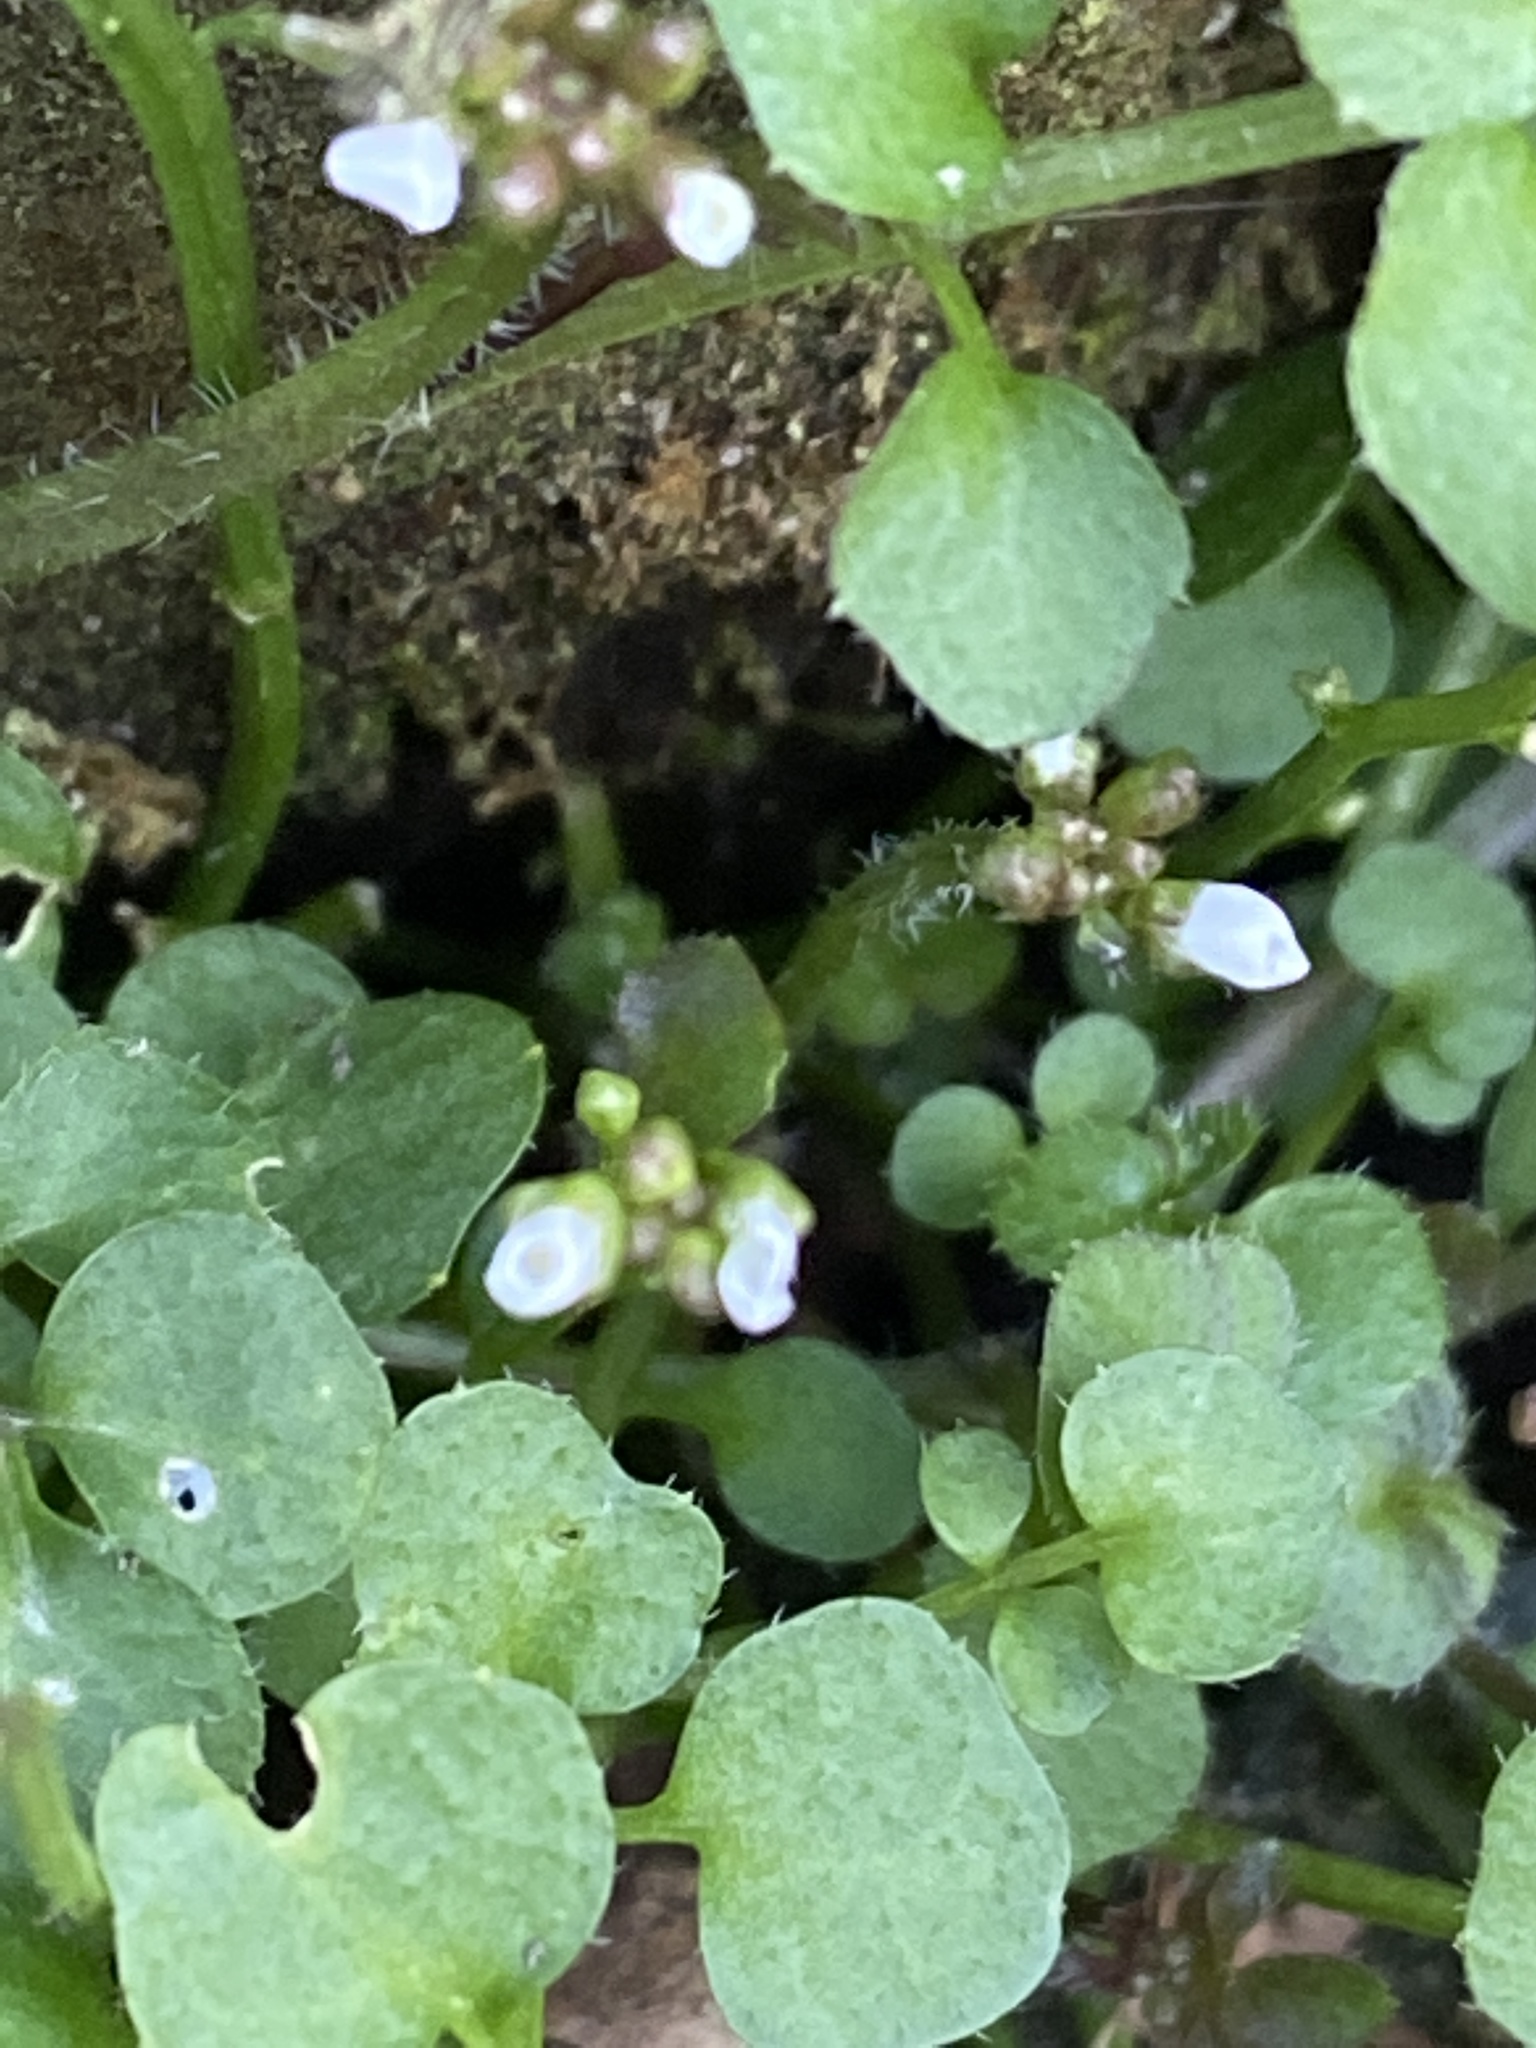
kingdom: Plantae
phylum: Tracheophyta
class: Magnoliopsida
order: Brassicales
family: Brassicaceae
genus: Cardamine
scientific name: Cardamine hirsuta
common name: Hairy bittercress
